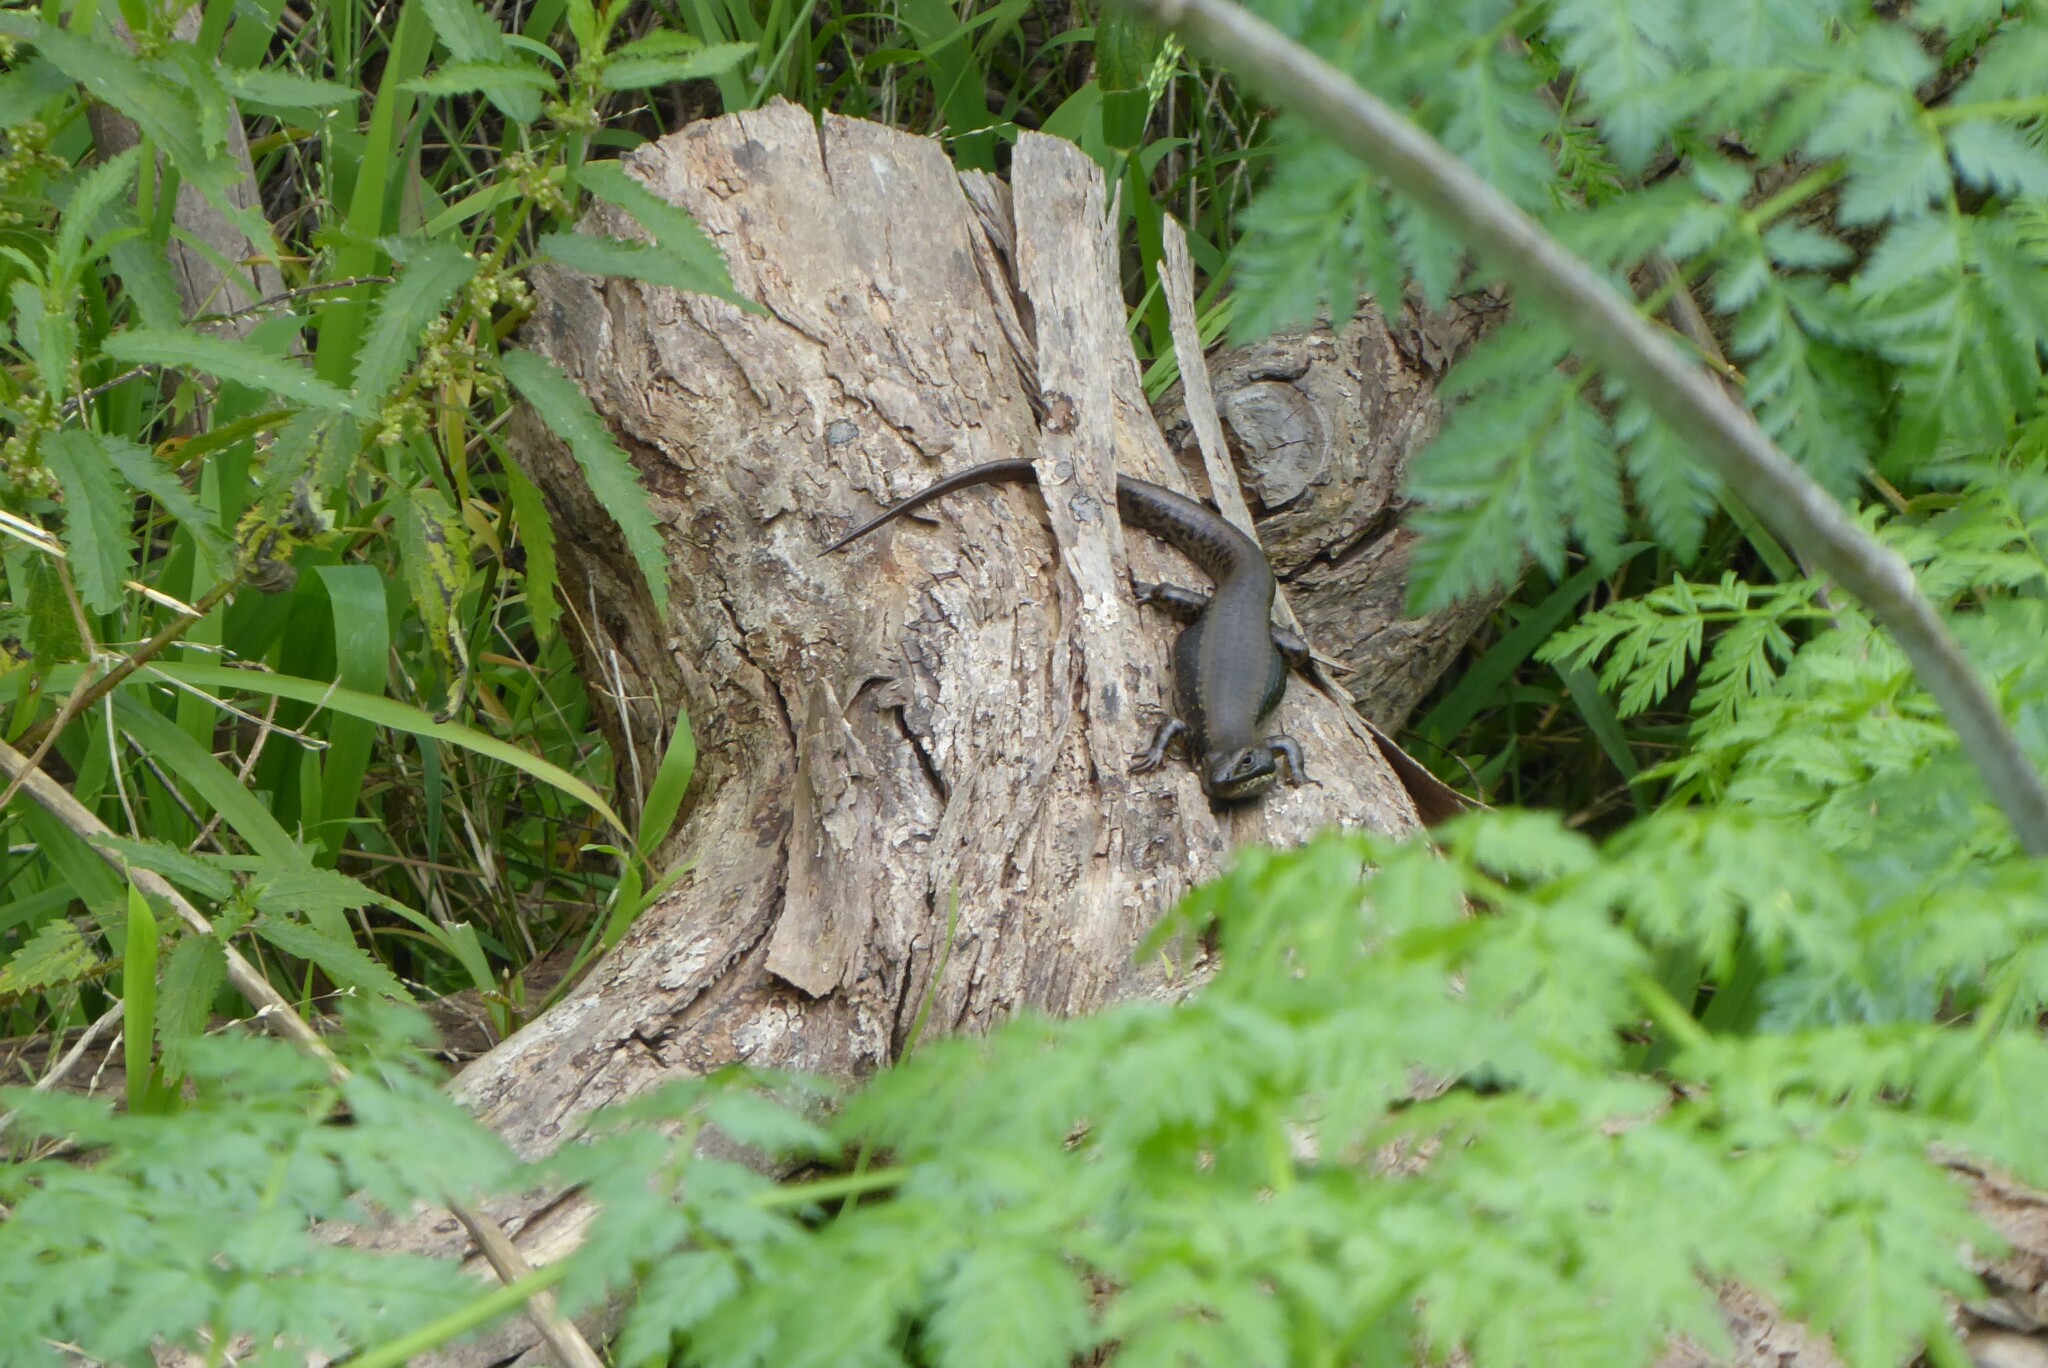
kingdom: Animalia
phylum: Chordata
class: Squamata
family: Scincidae
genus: Eulamprus
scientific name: Eulamprus tympanum
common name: Cool-temperate water-skink
